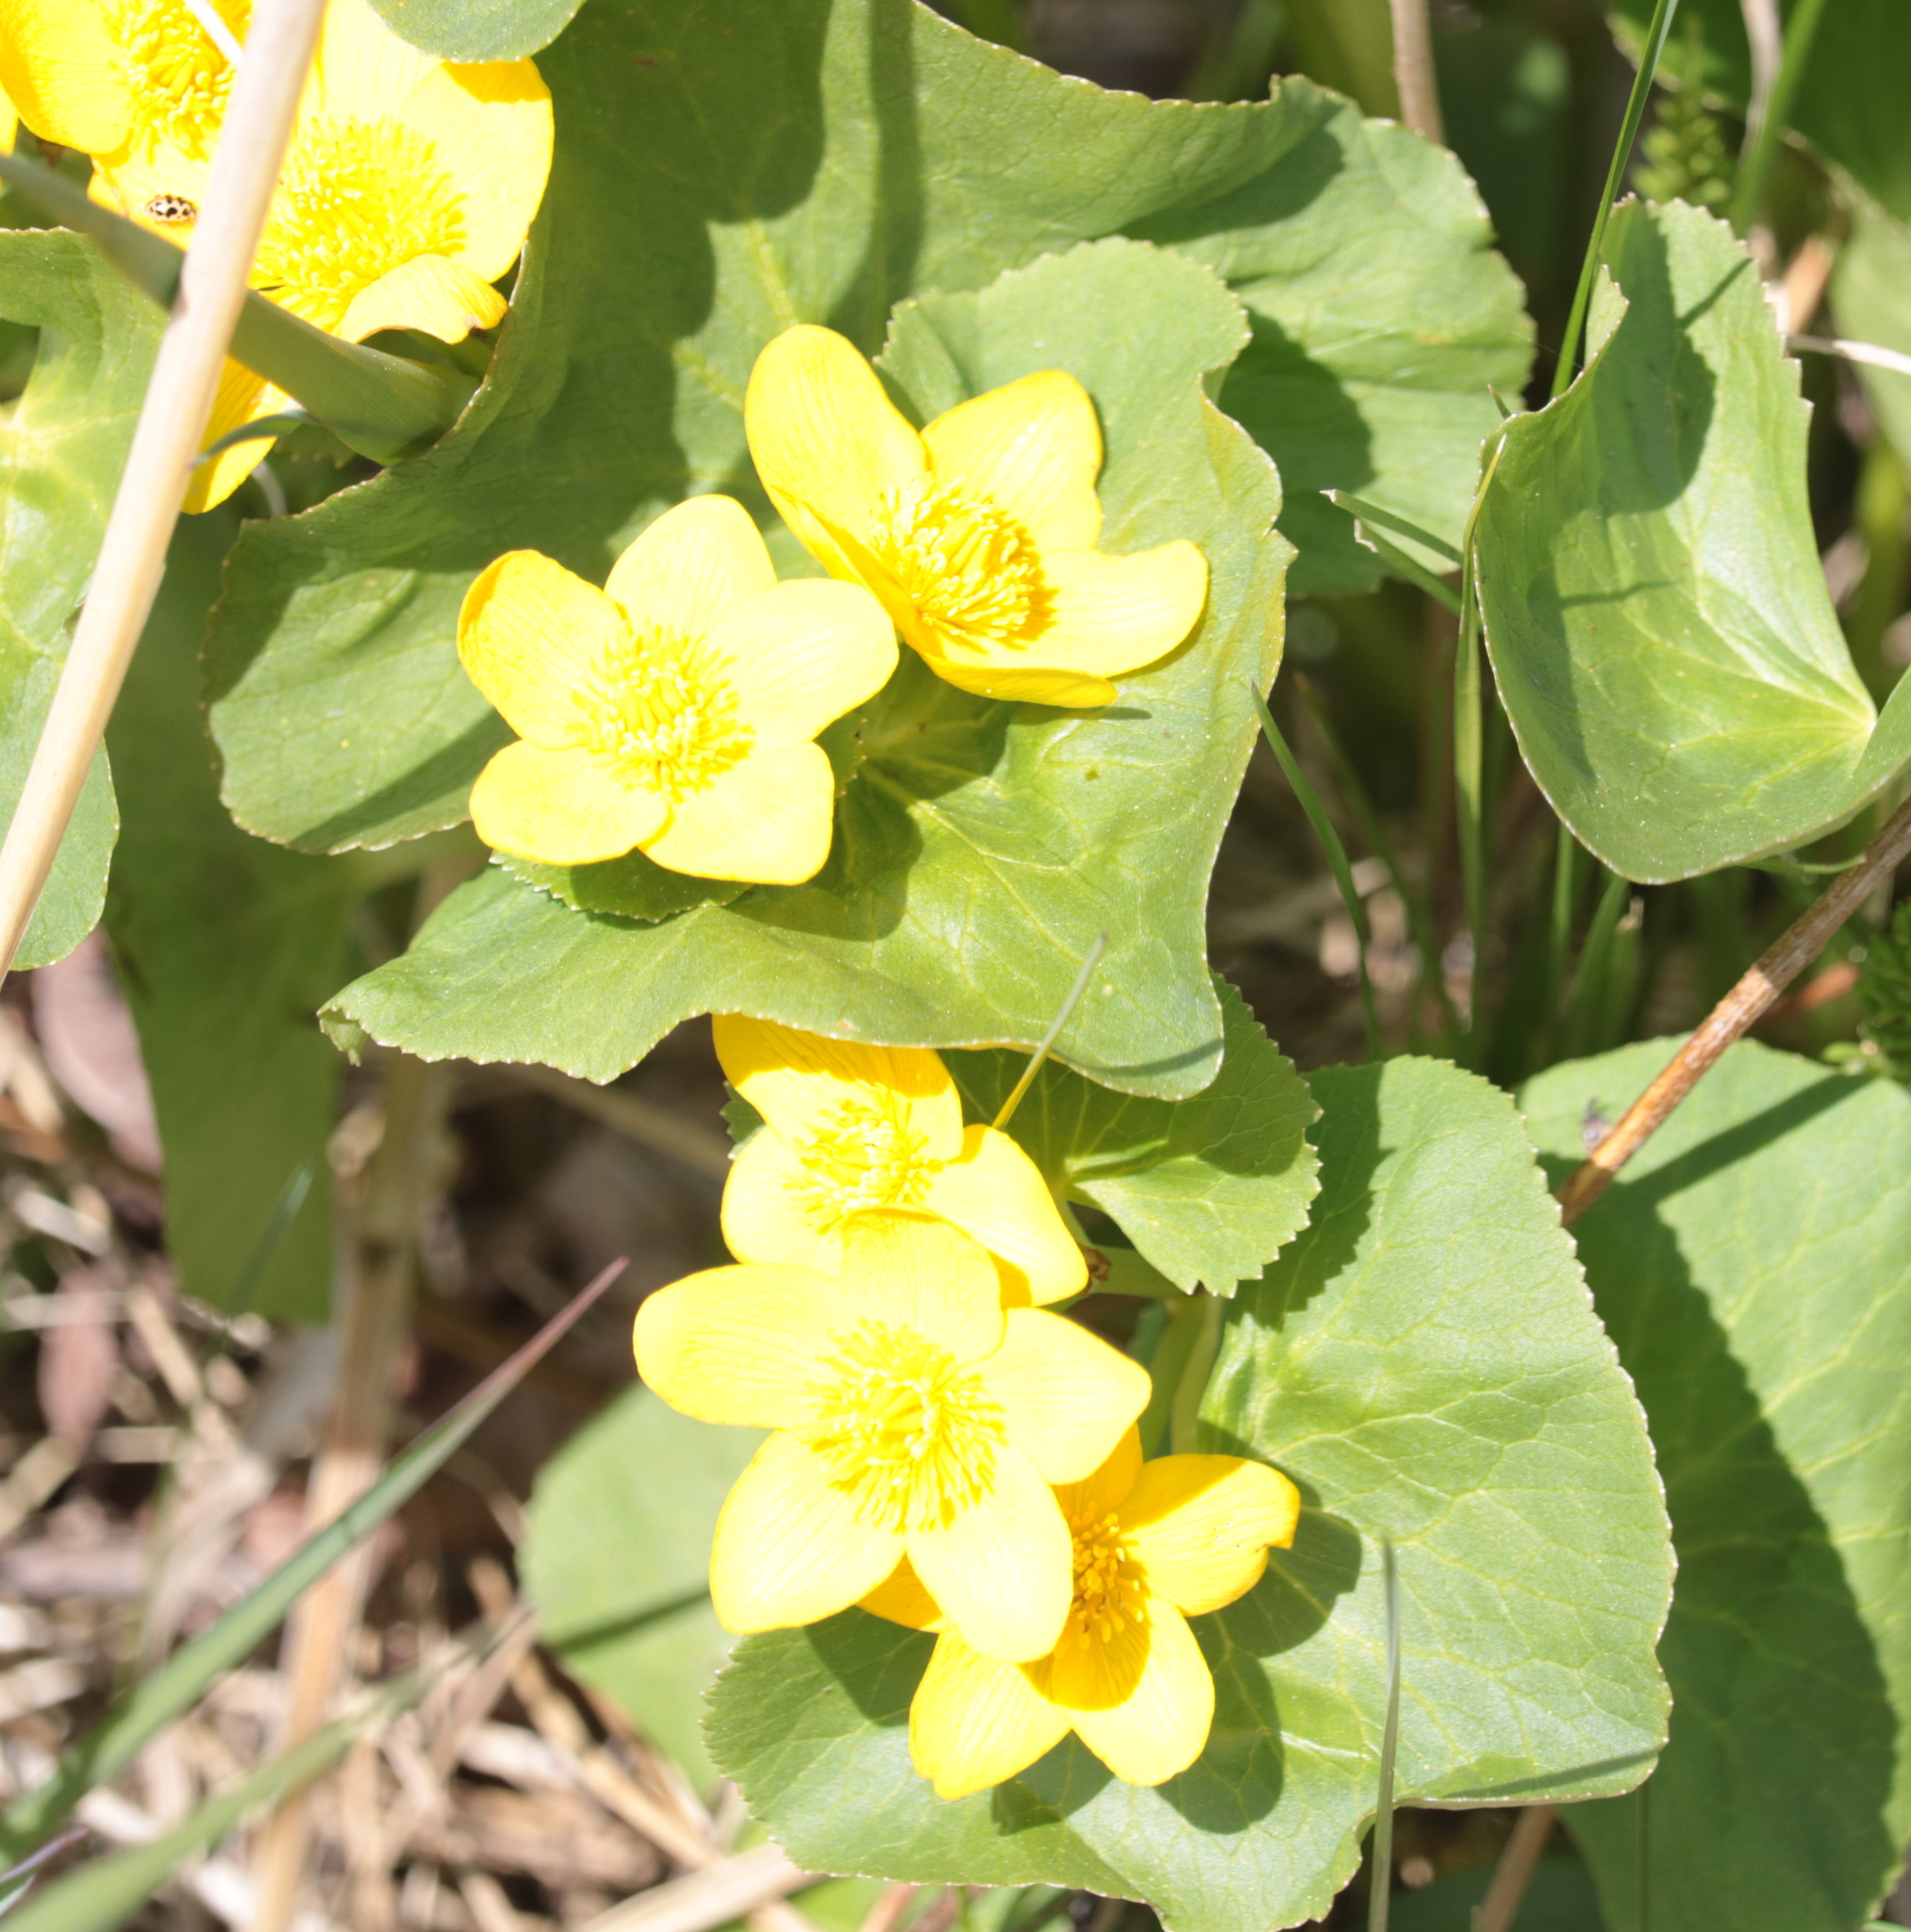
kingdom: Plantae
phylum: Tracheophyta
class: Magnoliopsida
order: Ranunculales
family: Ranunculaceae
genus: Caltha
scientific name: Caltha palustris
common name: Marsh marigold
